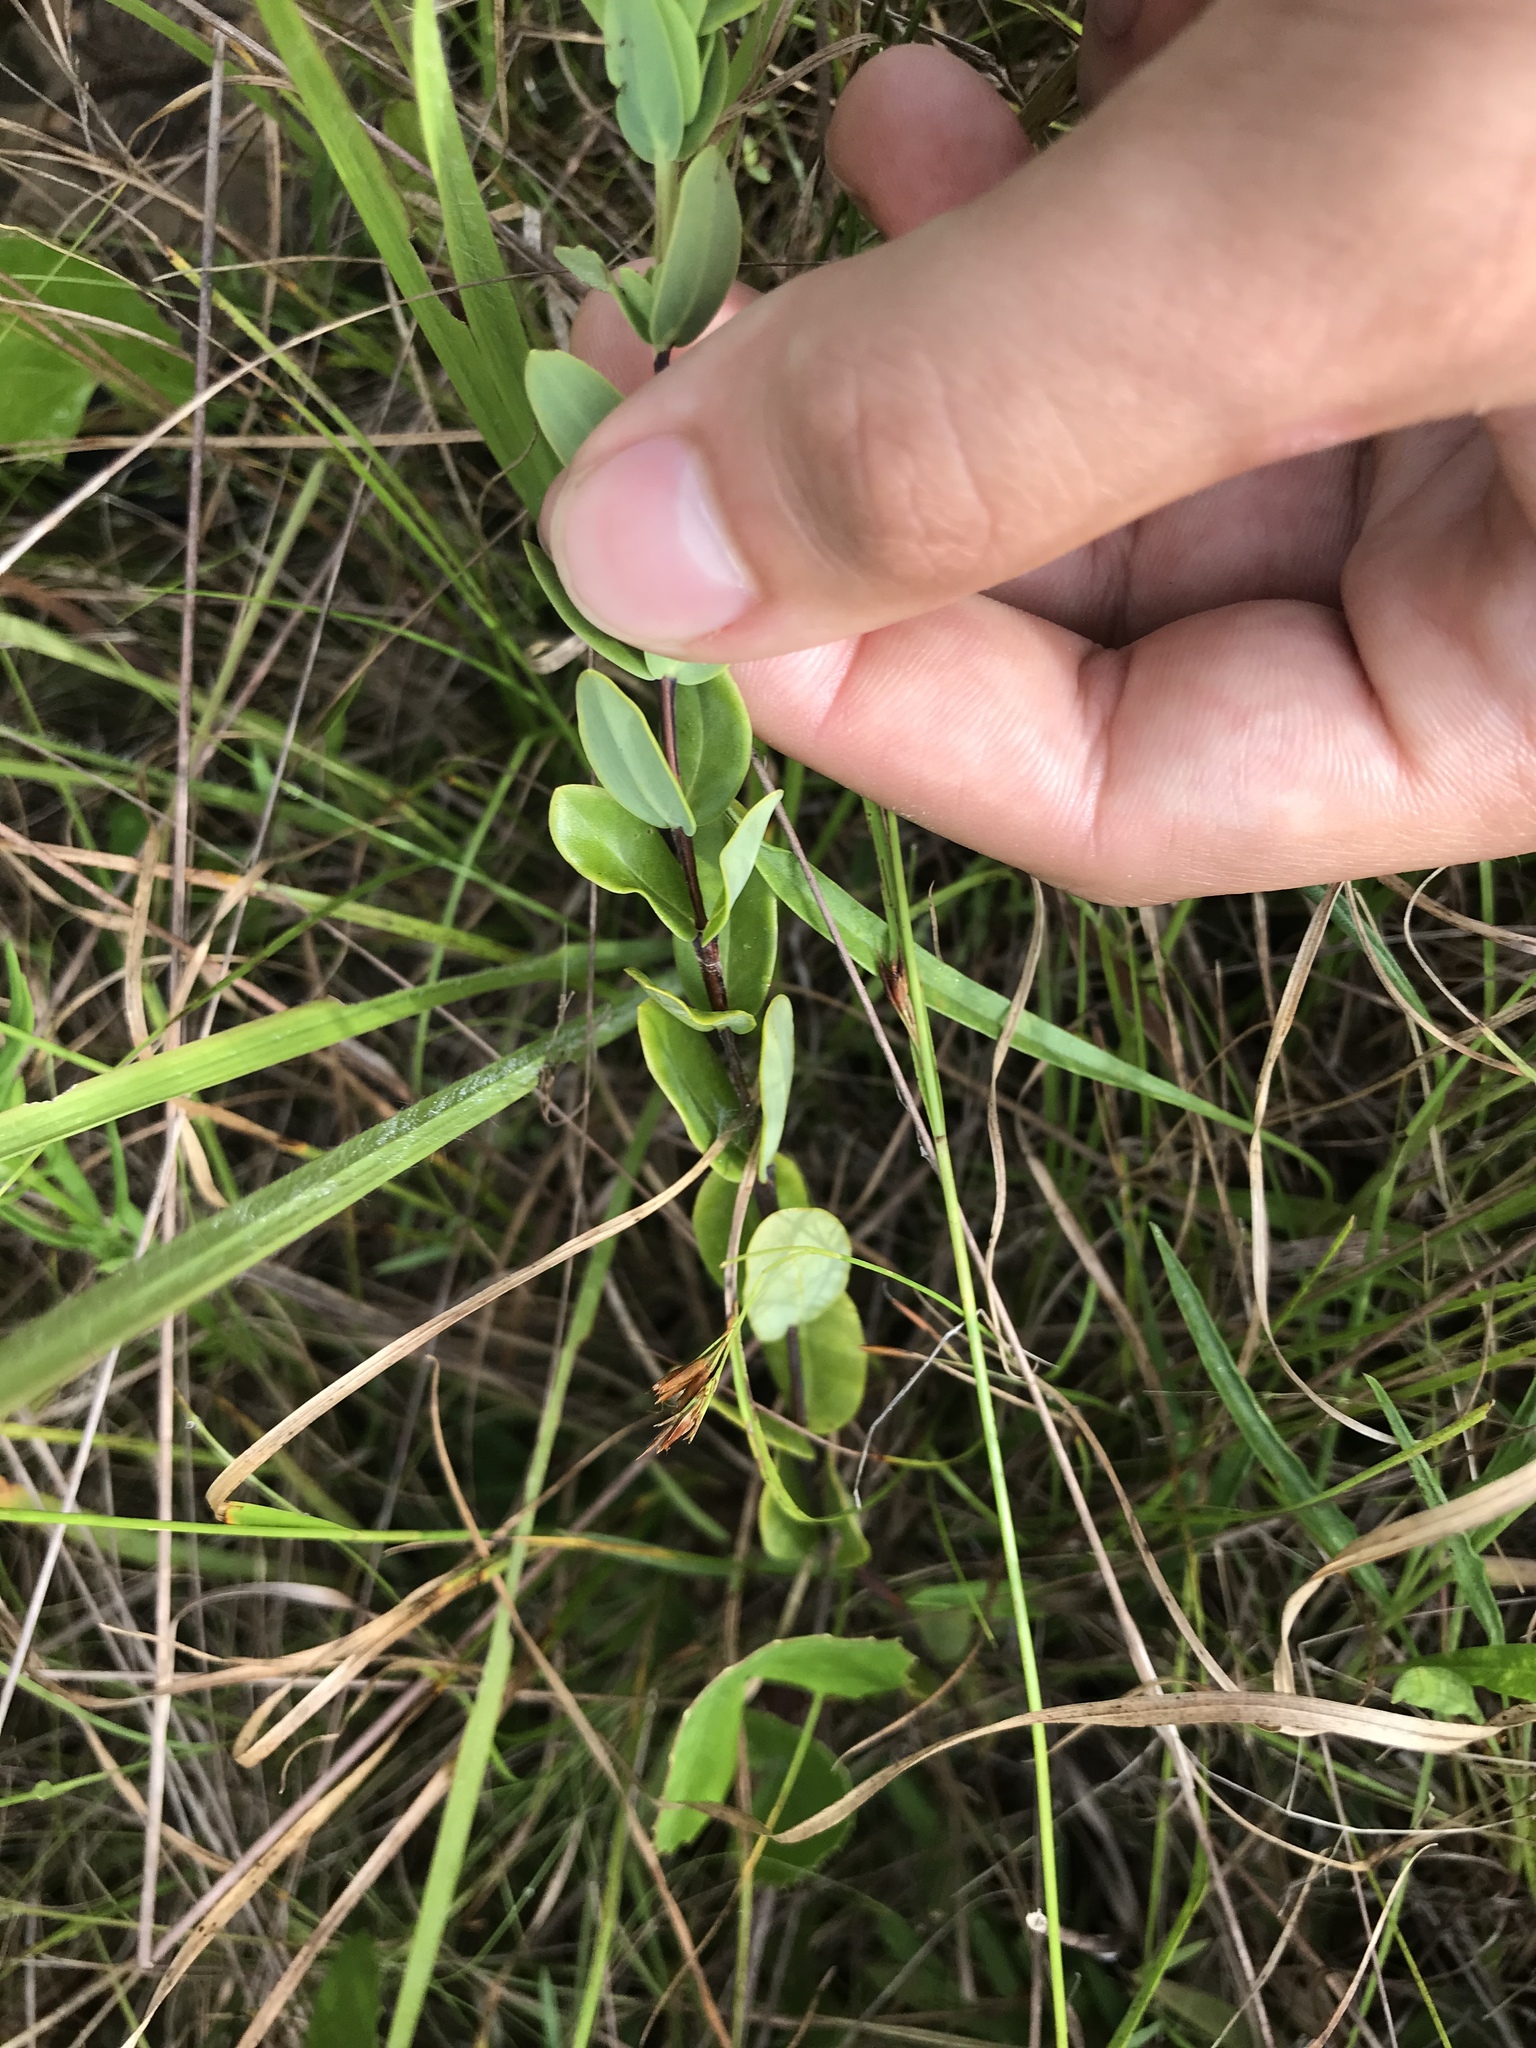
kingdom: Plantae
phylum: Tracheophyta
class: Magnoliopsida
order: Malpighiales
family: Hypericaceae
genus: Hypericum
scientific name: Hypericum crux-andreae
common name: St.-peter's-wort
